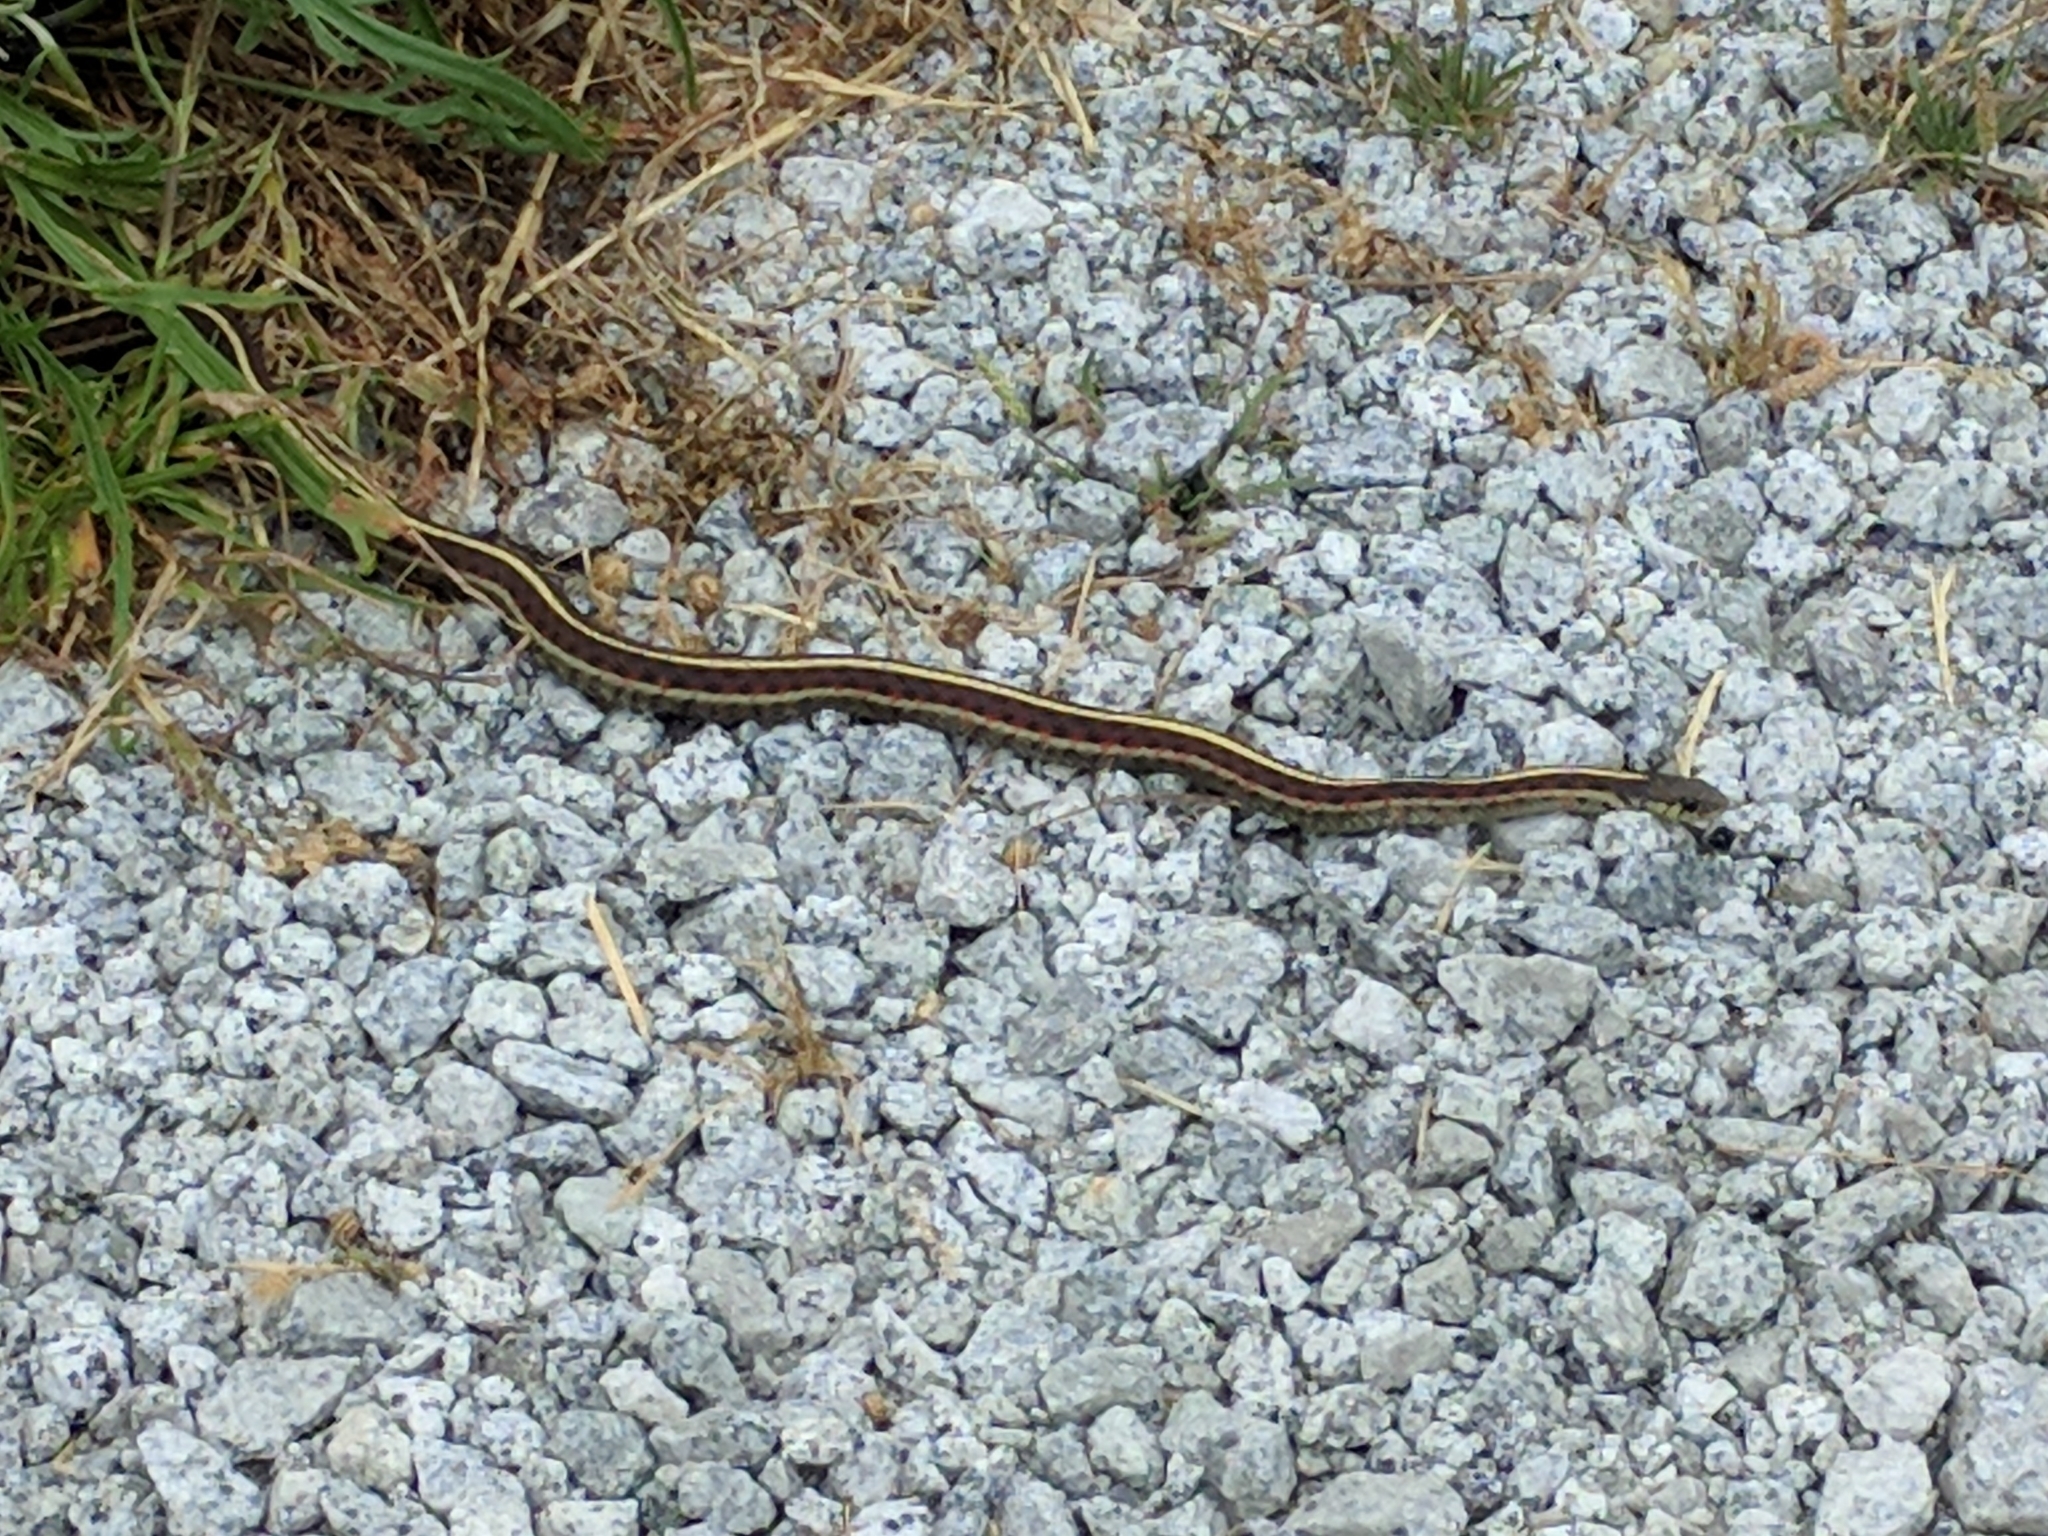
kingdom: Animalia
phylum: Chordata
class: Squamata
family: Colubridae
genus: Thamnophis
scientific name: Thamnophis elegans
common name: Western terrestrial garter snake
